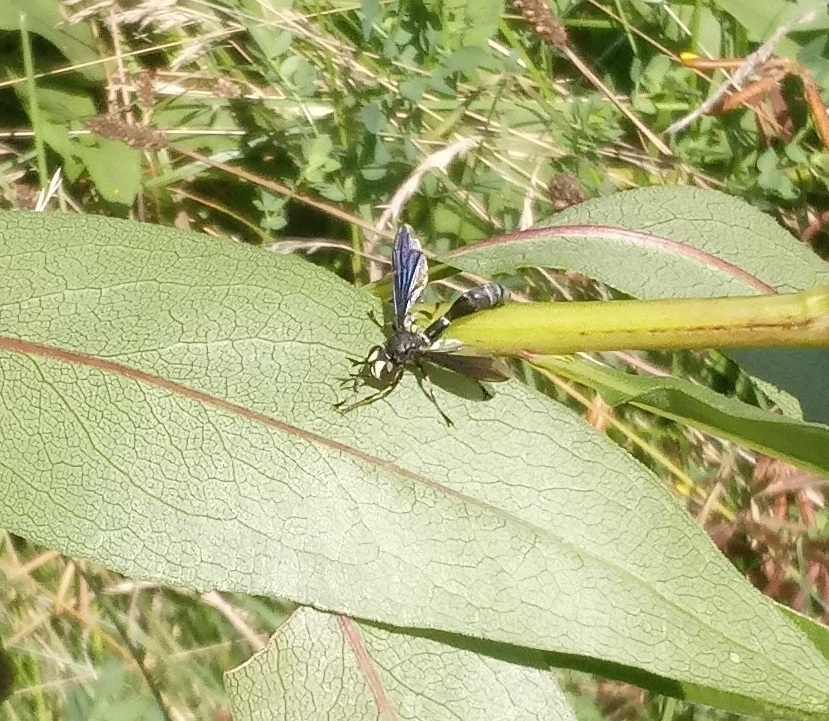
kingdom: Animalia
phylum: Arthropoda
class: Insecta
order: Diptera
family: Conopidae
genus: Physocephala
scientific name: Physocephala tibialis
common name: Common eastern physocephala
